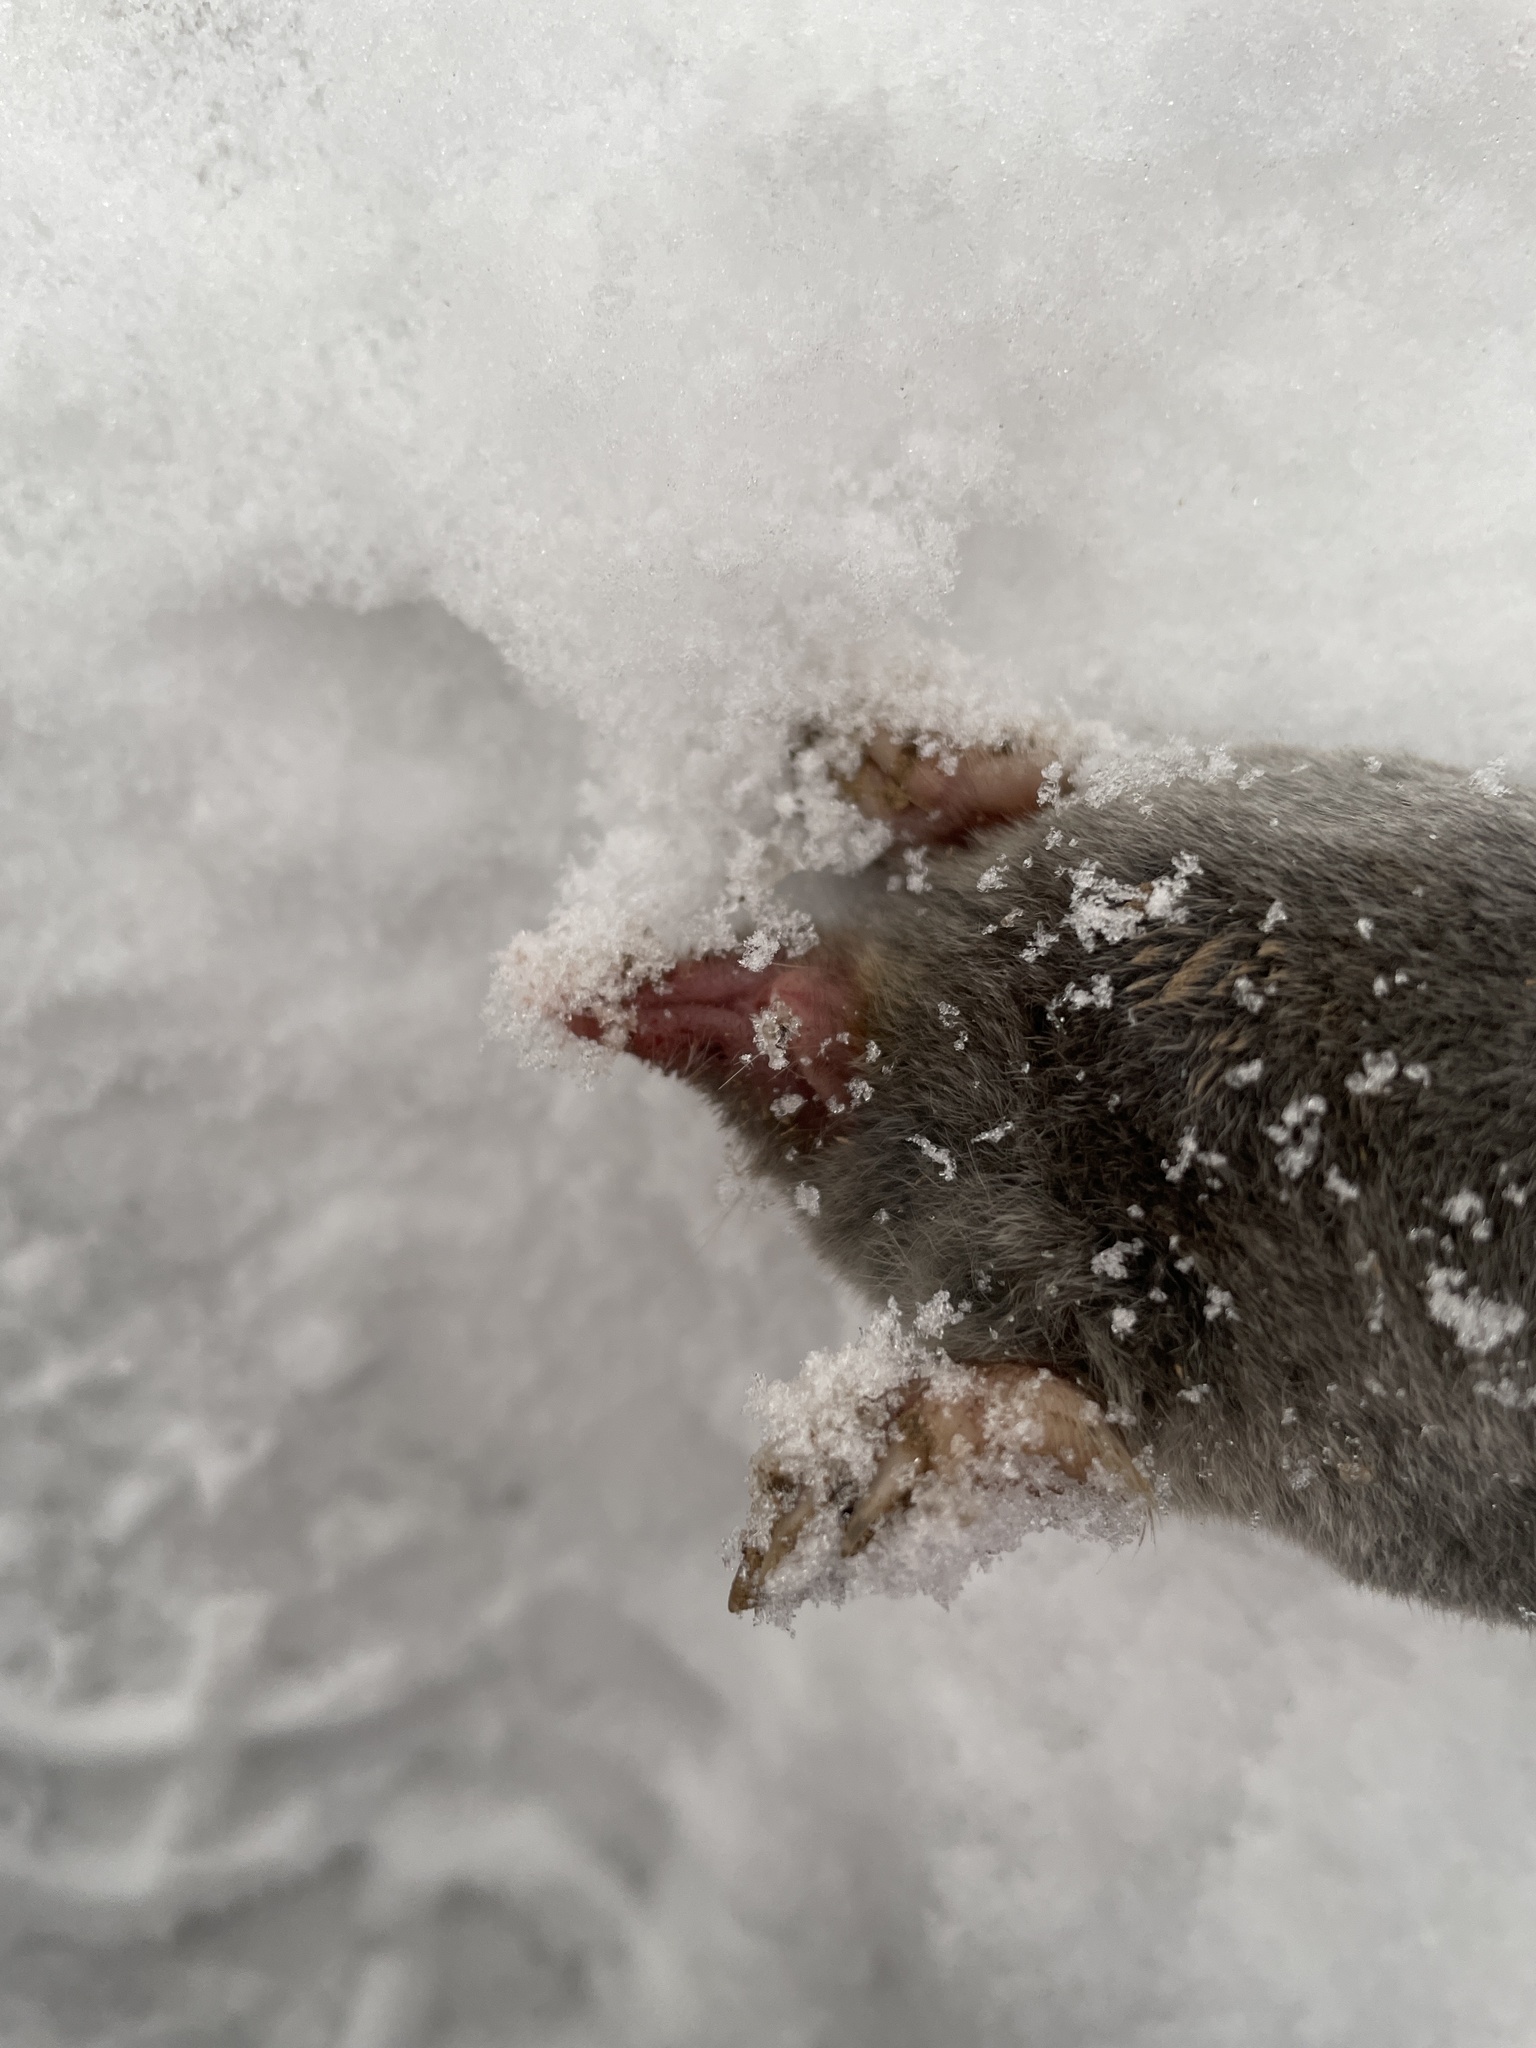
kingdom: Animalia
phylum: Chordata
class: Mammalia
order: Soricomorpha
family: Talpidae
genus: Parascalops
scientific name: Parascalops breweri
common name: Hairy-tailed mole
